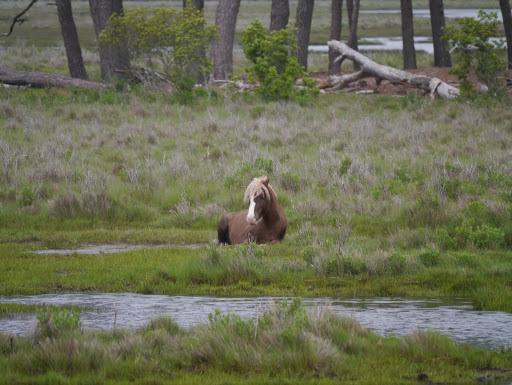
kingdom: Animalia
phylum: Chordata
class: Mammalia
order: Perissodactyla
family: Equidae
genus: Equus
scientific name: Equus caballus
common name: Horse
